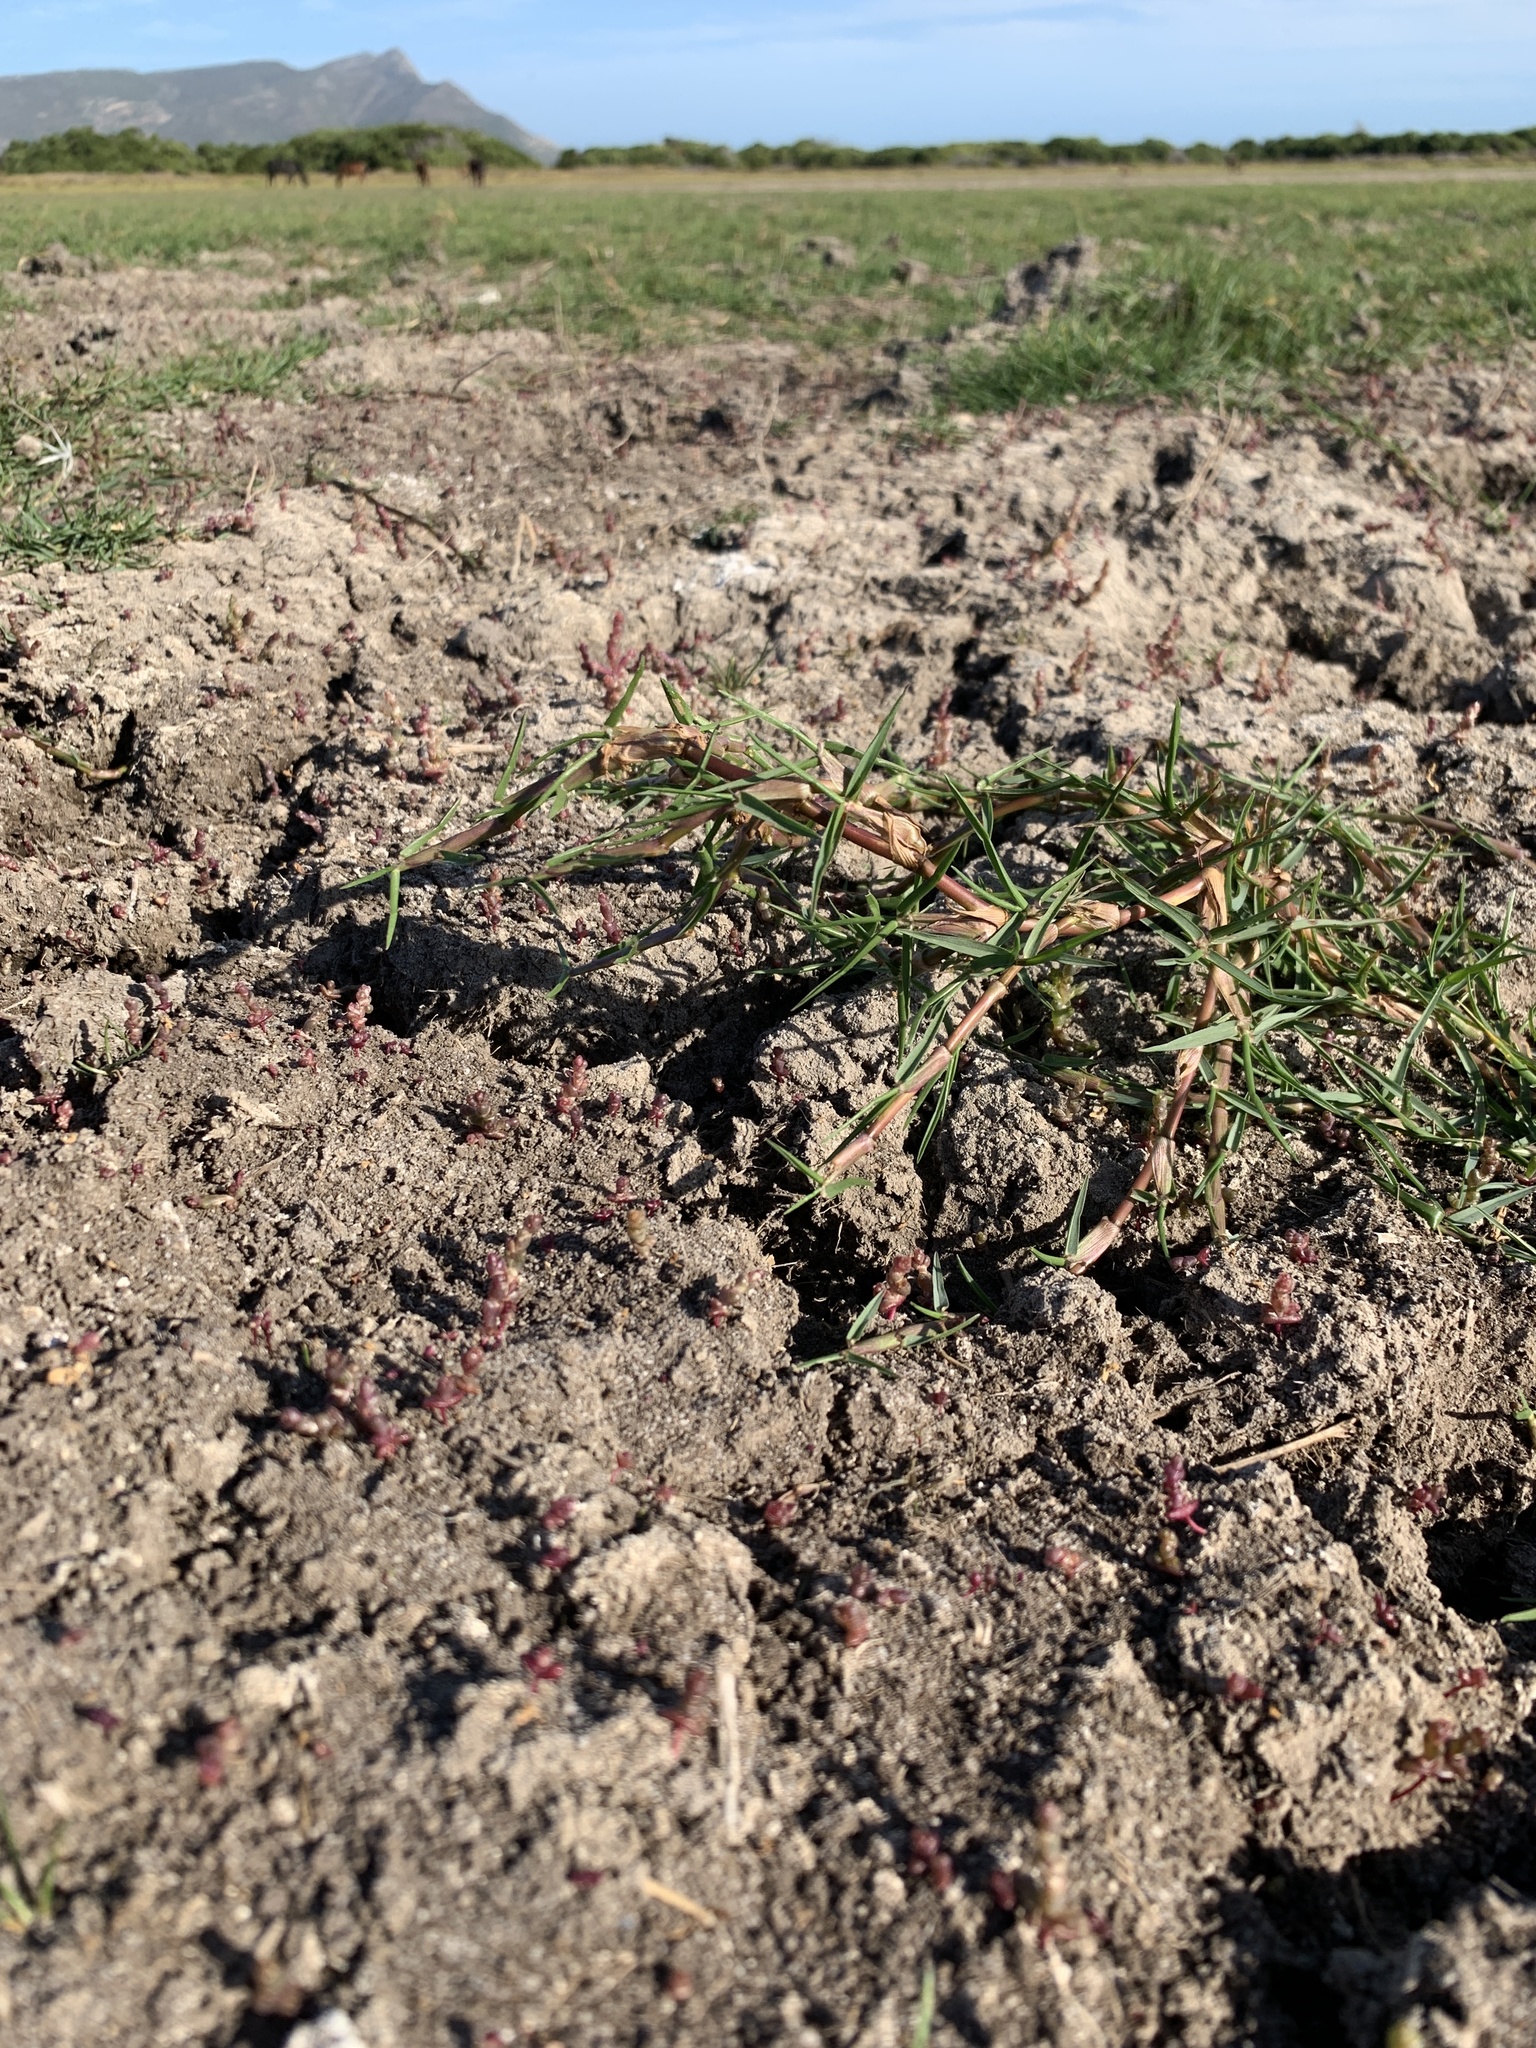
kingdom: Plantae
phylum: Tracheophyta
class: Liliopsida
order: Poales
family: Poaceae
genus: Stenotaphrum
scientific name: Stenotaphrum secundatum
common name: St. augustine grass
